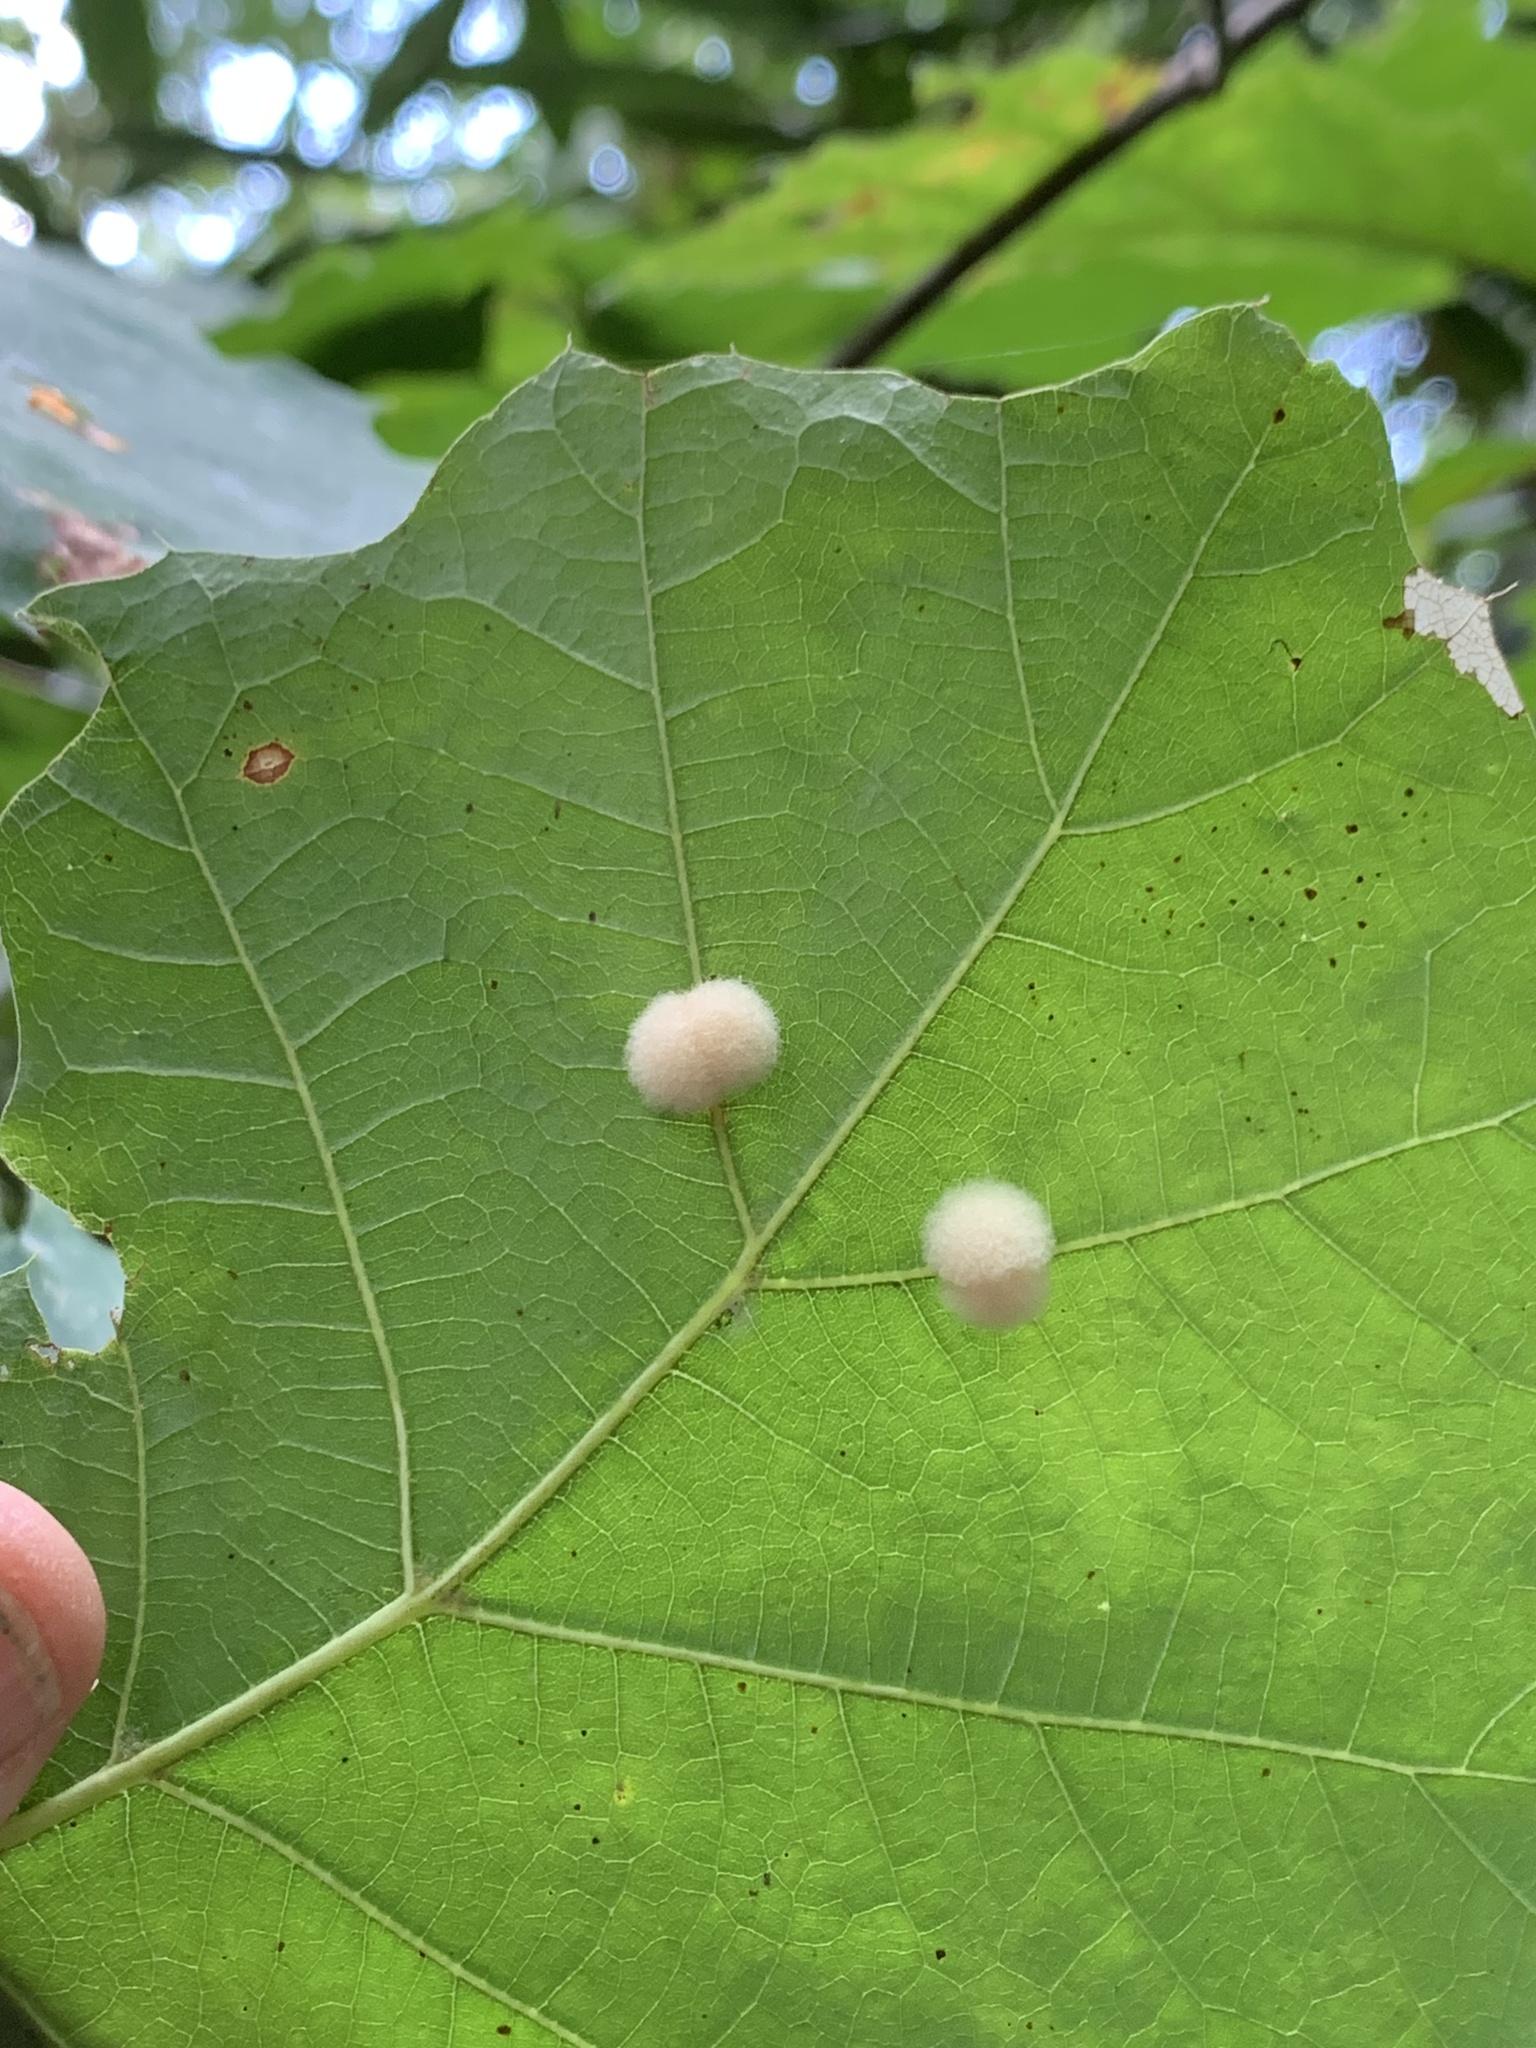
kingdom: Animalia
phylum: Arthropoda
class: Insecta
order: Hymenoptera
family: Cynipidae
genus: Callirhytis
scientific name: Callirhytis
